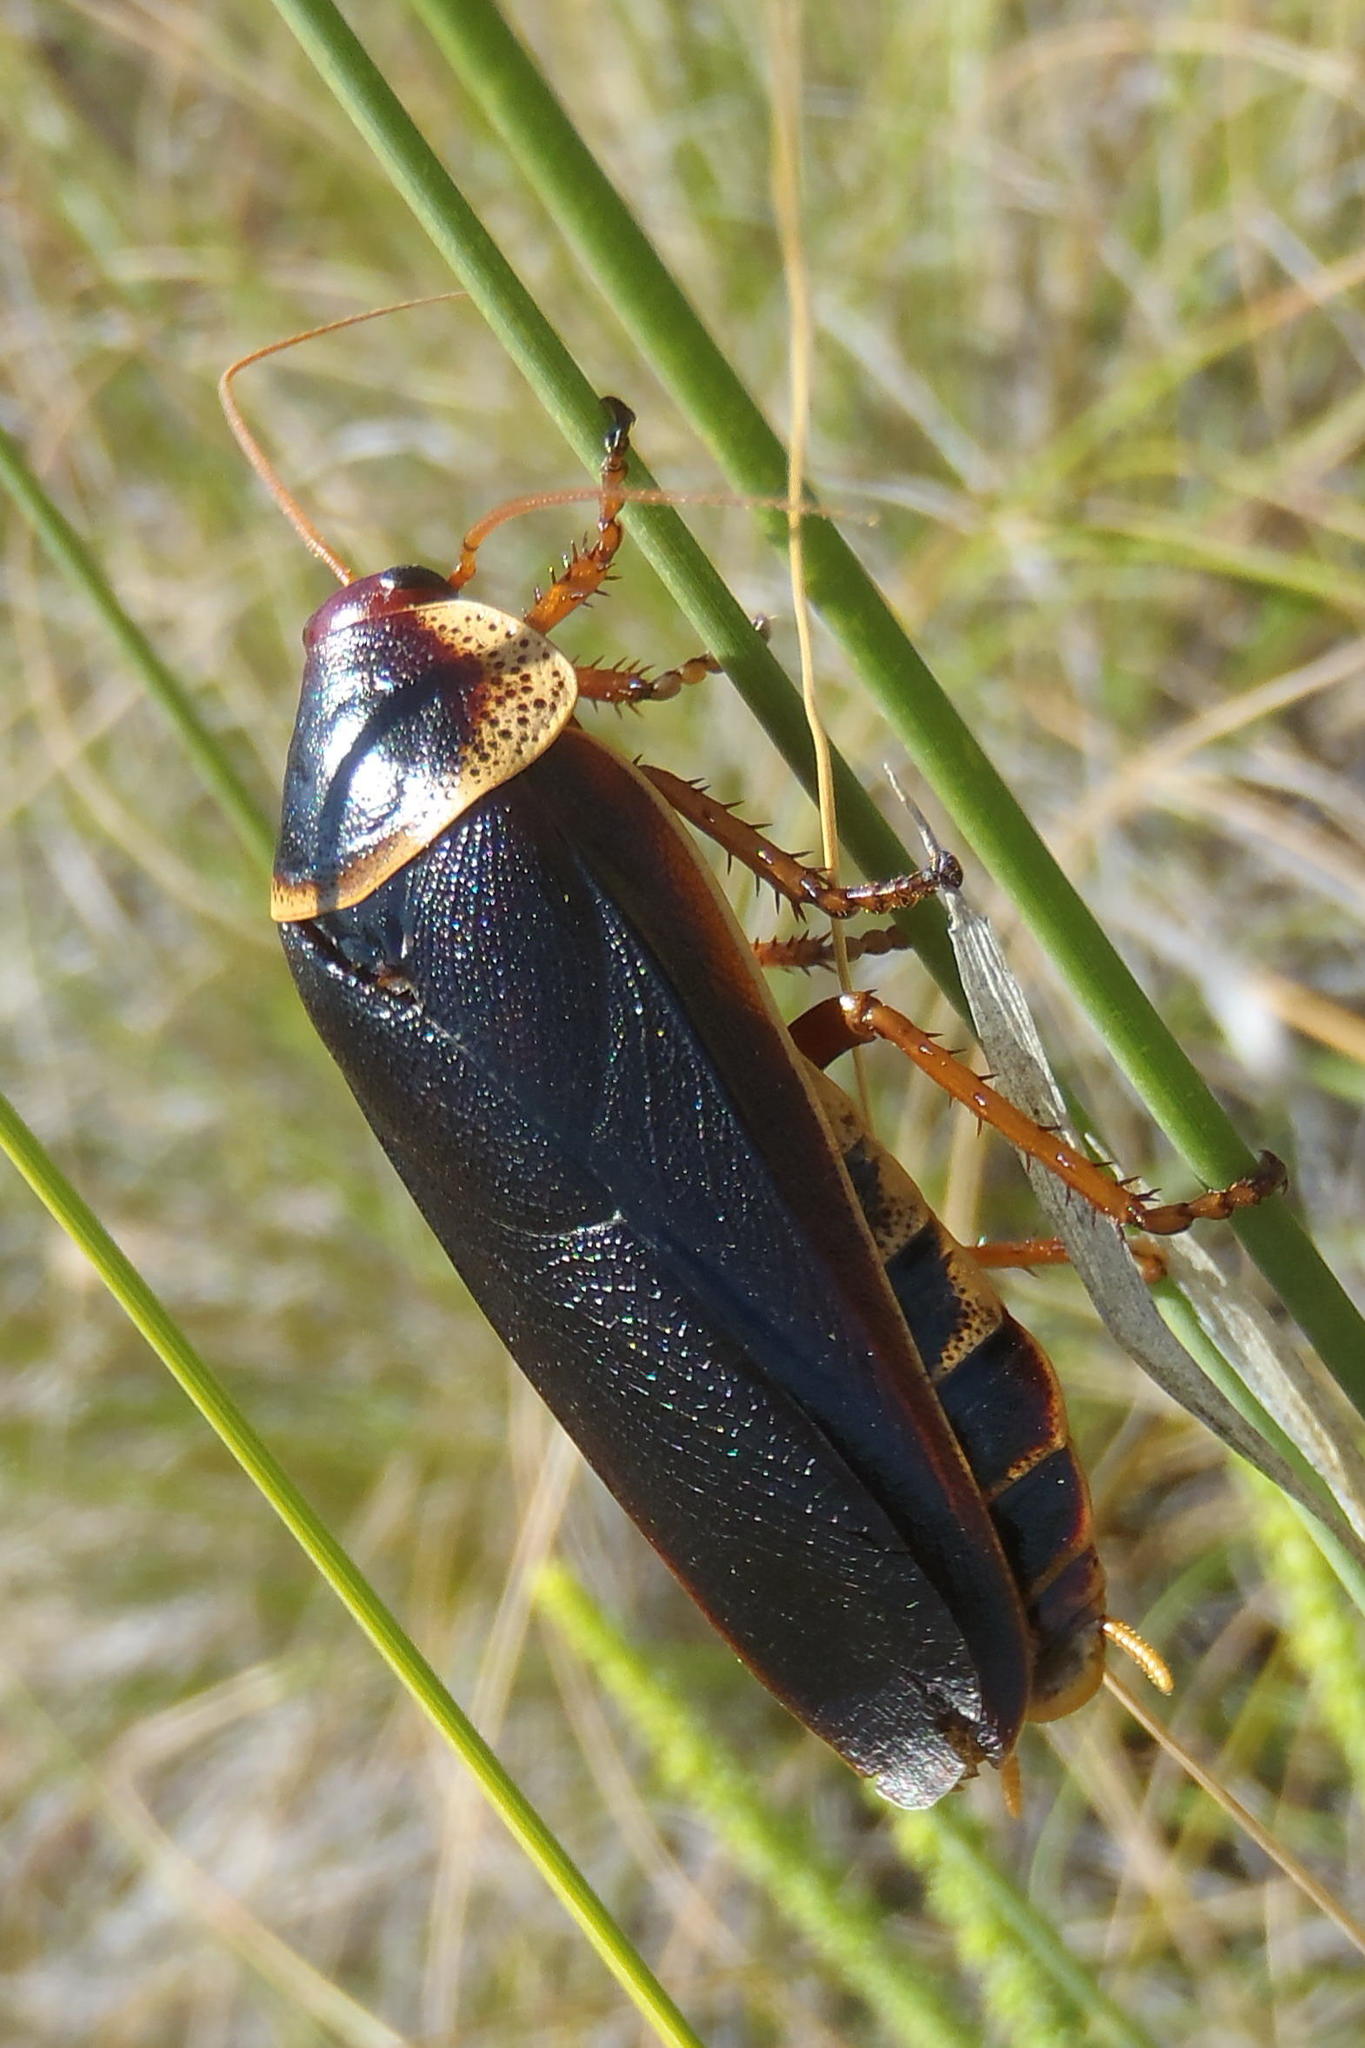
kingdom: Animalia
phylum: Arthropoda
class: Insecta
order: Blattodea
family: Blaberidae
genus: Aptera
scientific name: Aptera fusca
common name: Cape mountain cockroach
